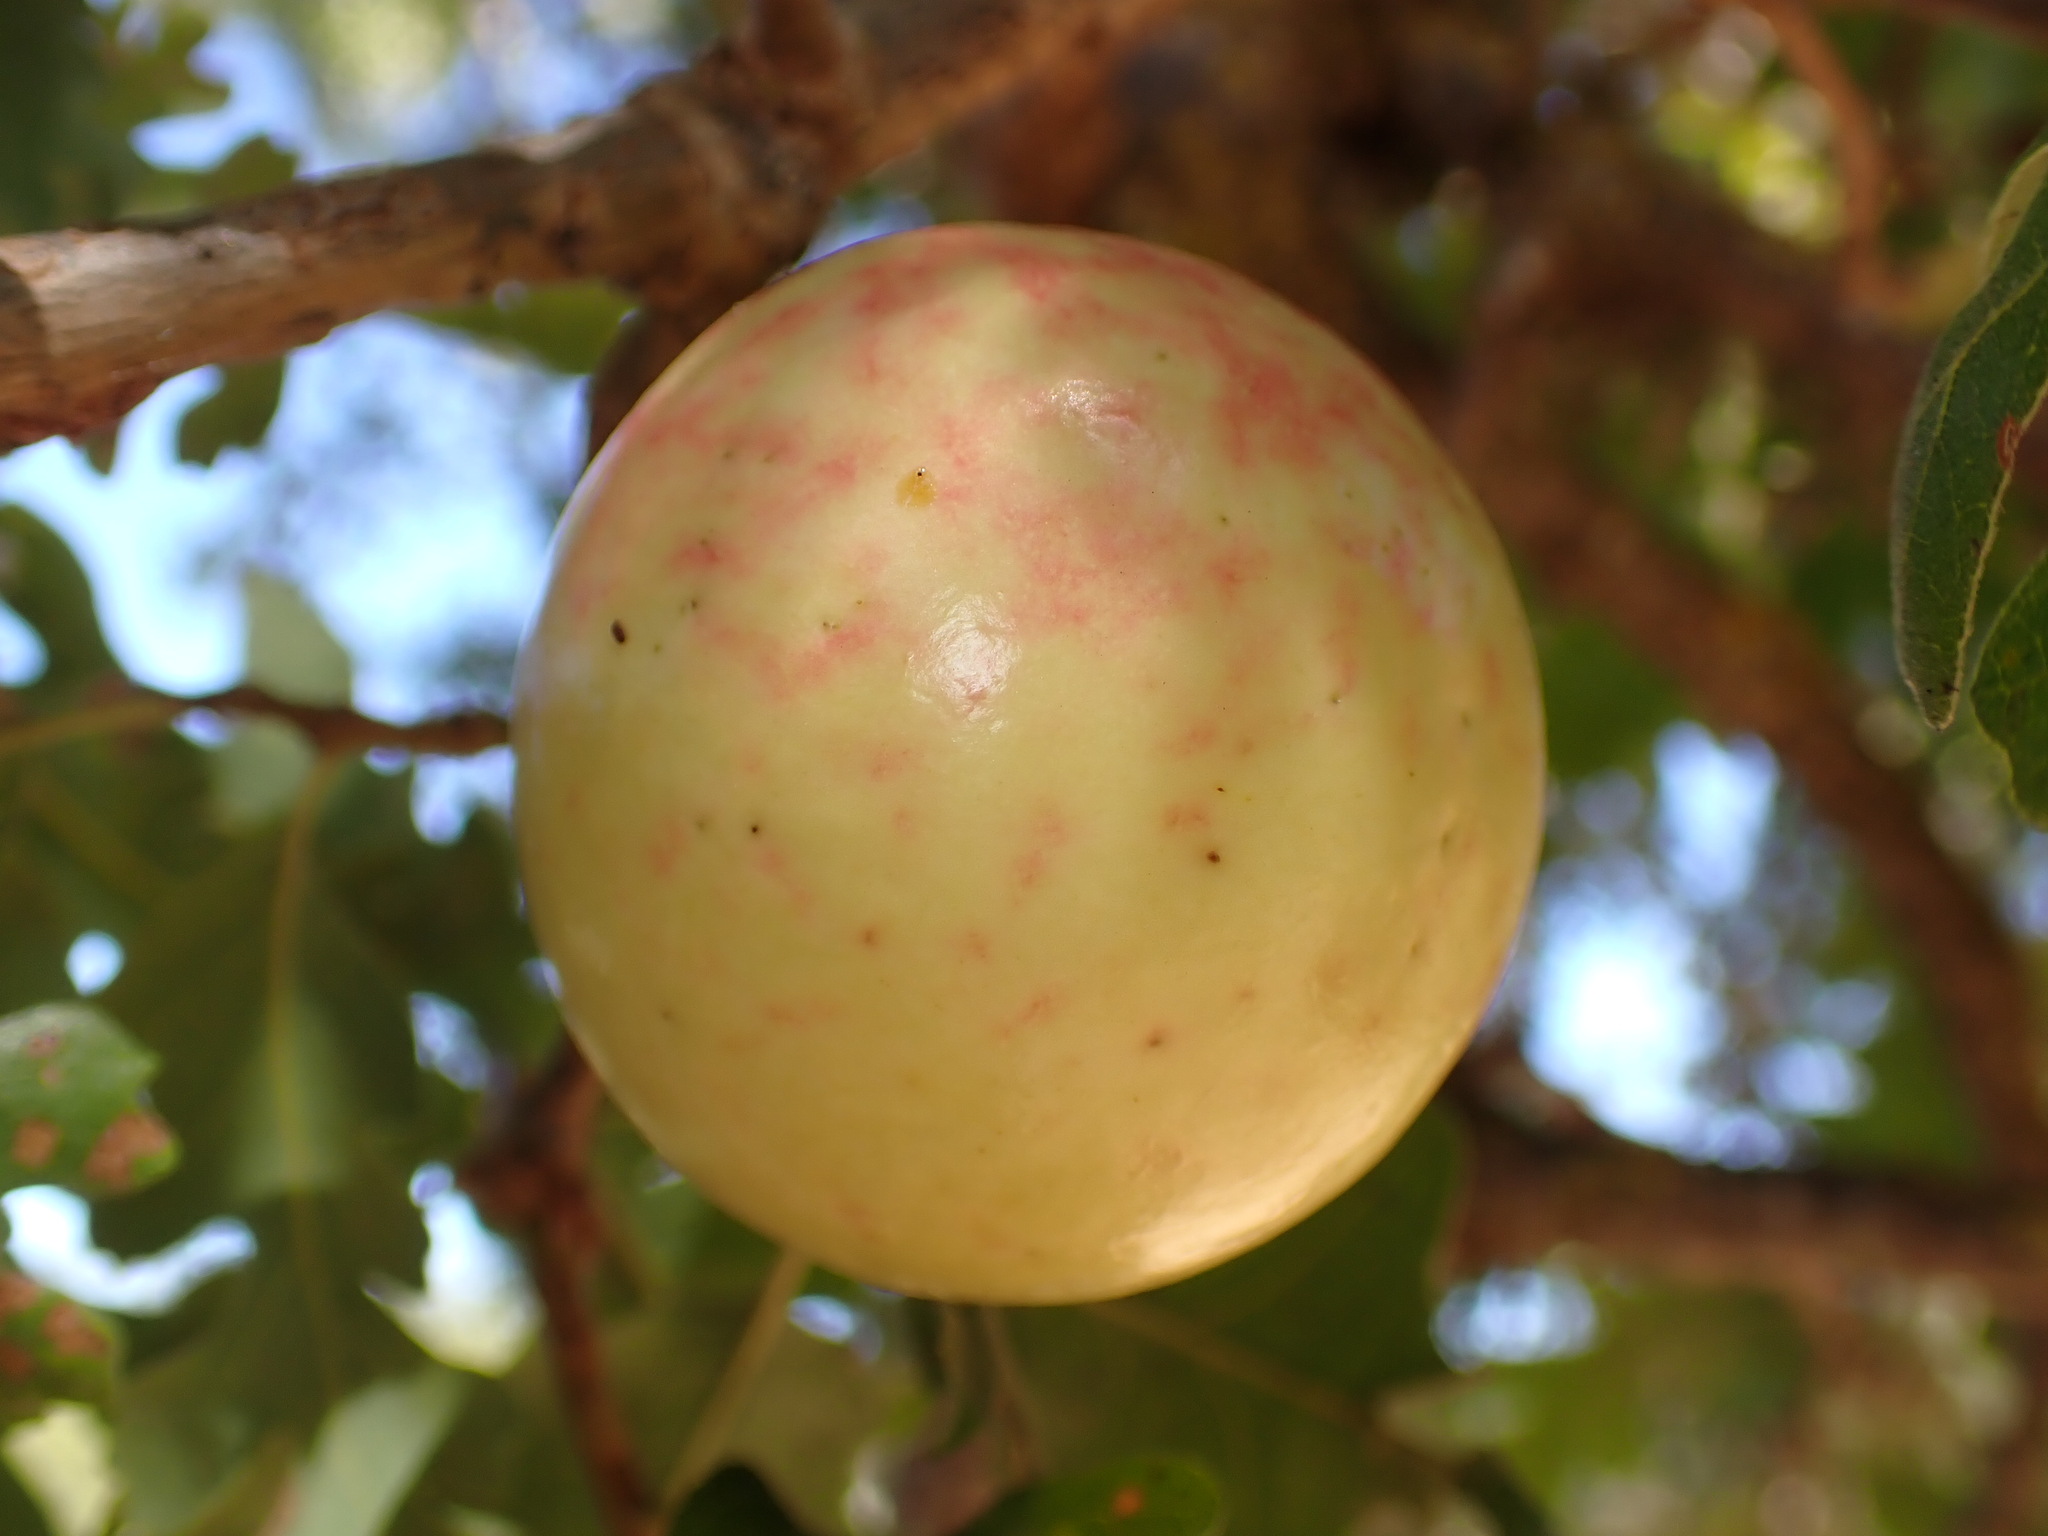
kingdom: Animalia
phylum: Arthropoda
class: Insecta
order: Hymenoptera
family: Cynipidae
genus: Andricus
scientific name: Andricus quercuscalifornicus
